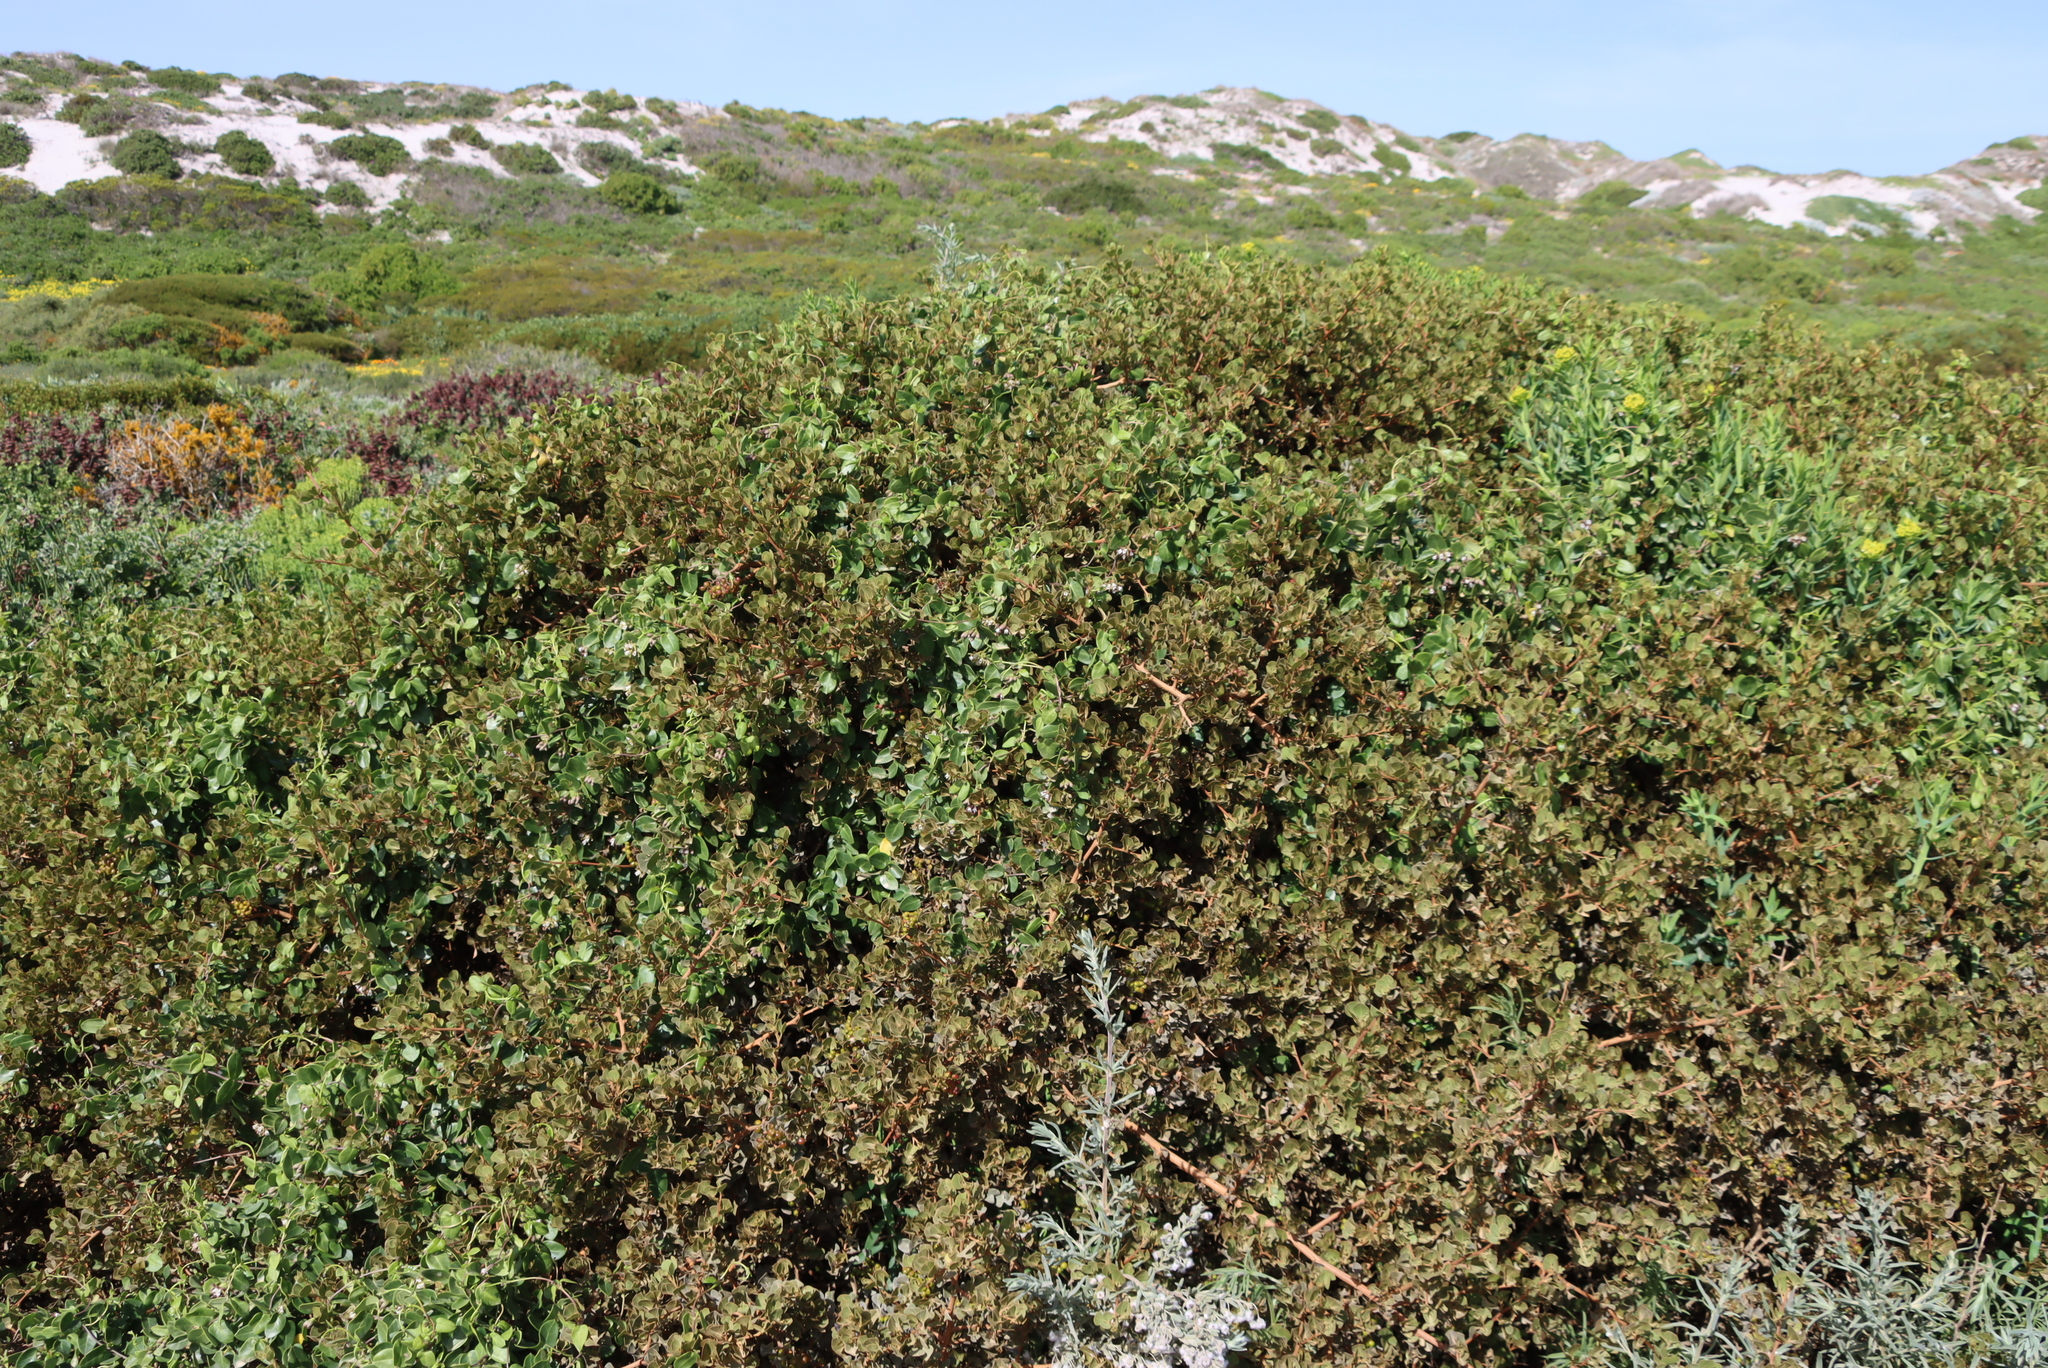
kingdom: Plantae
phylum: Tracheophyta
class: Magnoliopsida
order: Gentianales
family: Apocynaceae
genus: Cynanchum
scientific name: Cynanchum africanum
